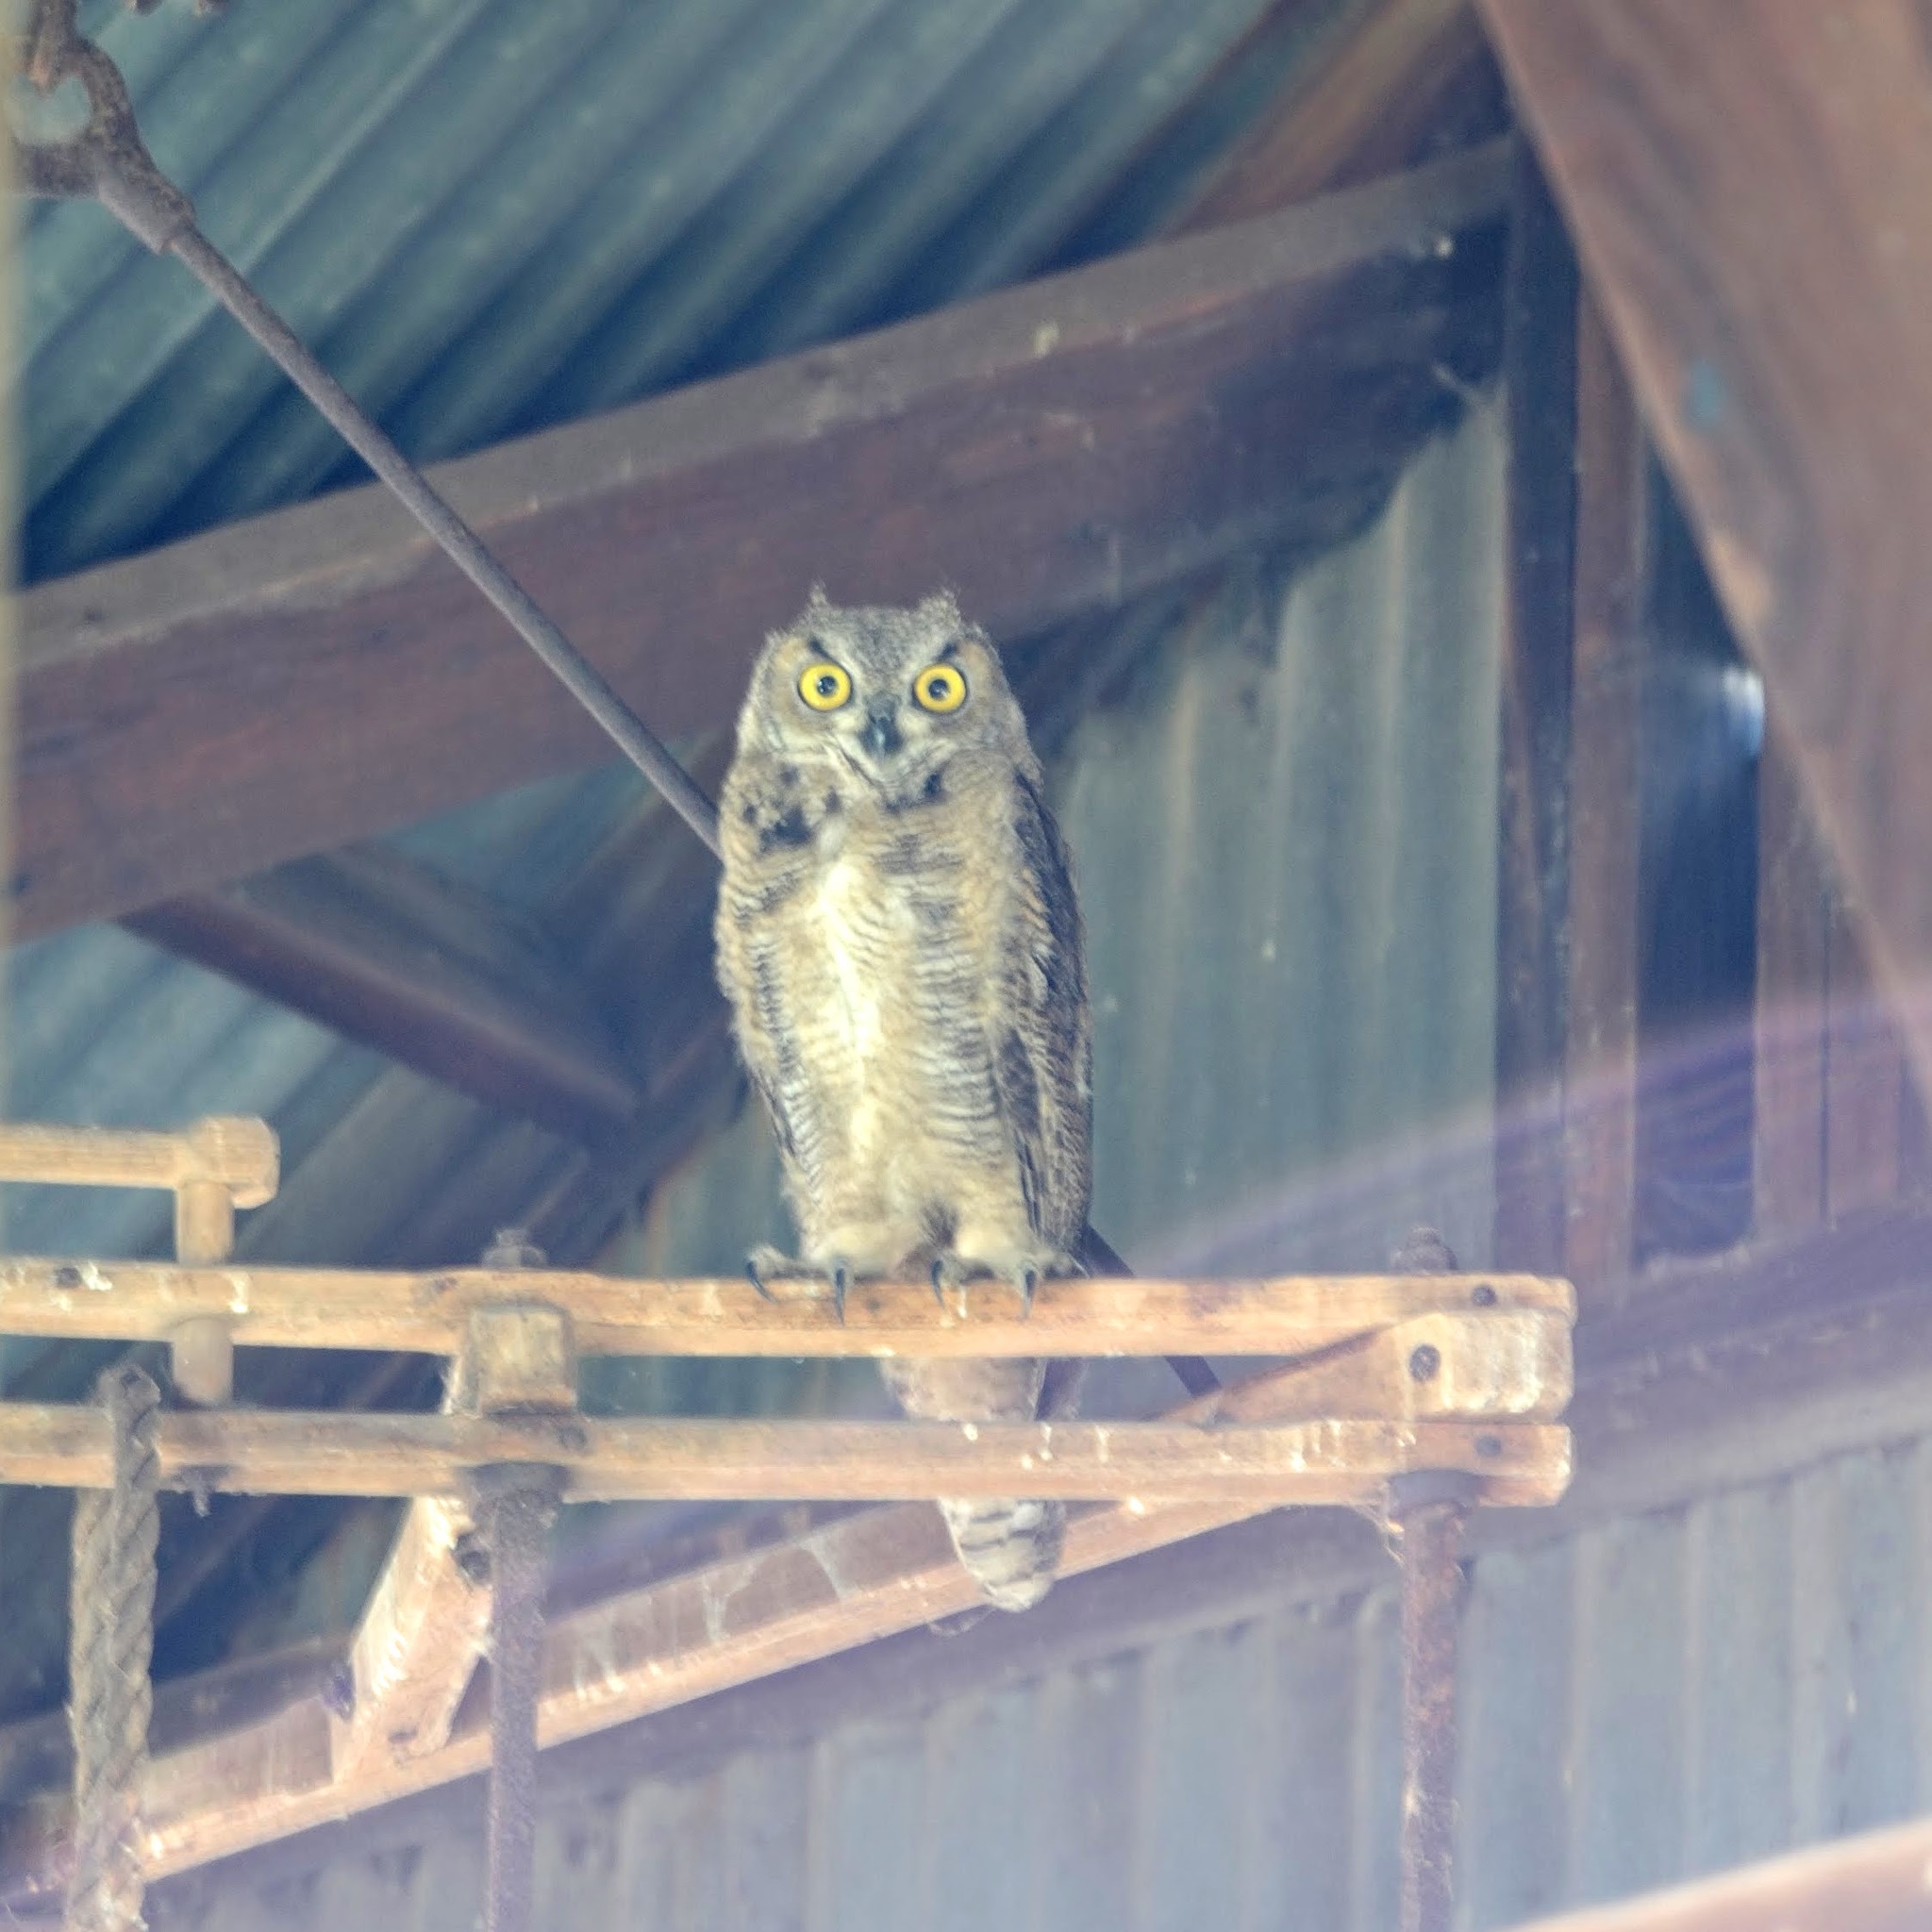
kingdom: Animalia
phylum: Chordata
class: Aves
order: Strigiformes
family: Strigidae
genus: Bubo
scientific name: Bubo virginianus
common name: Great horned owl
